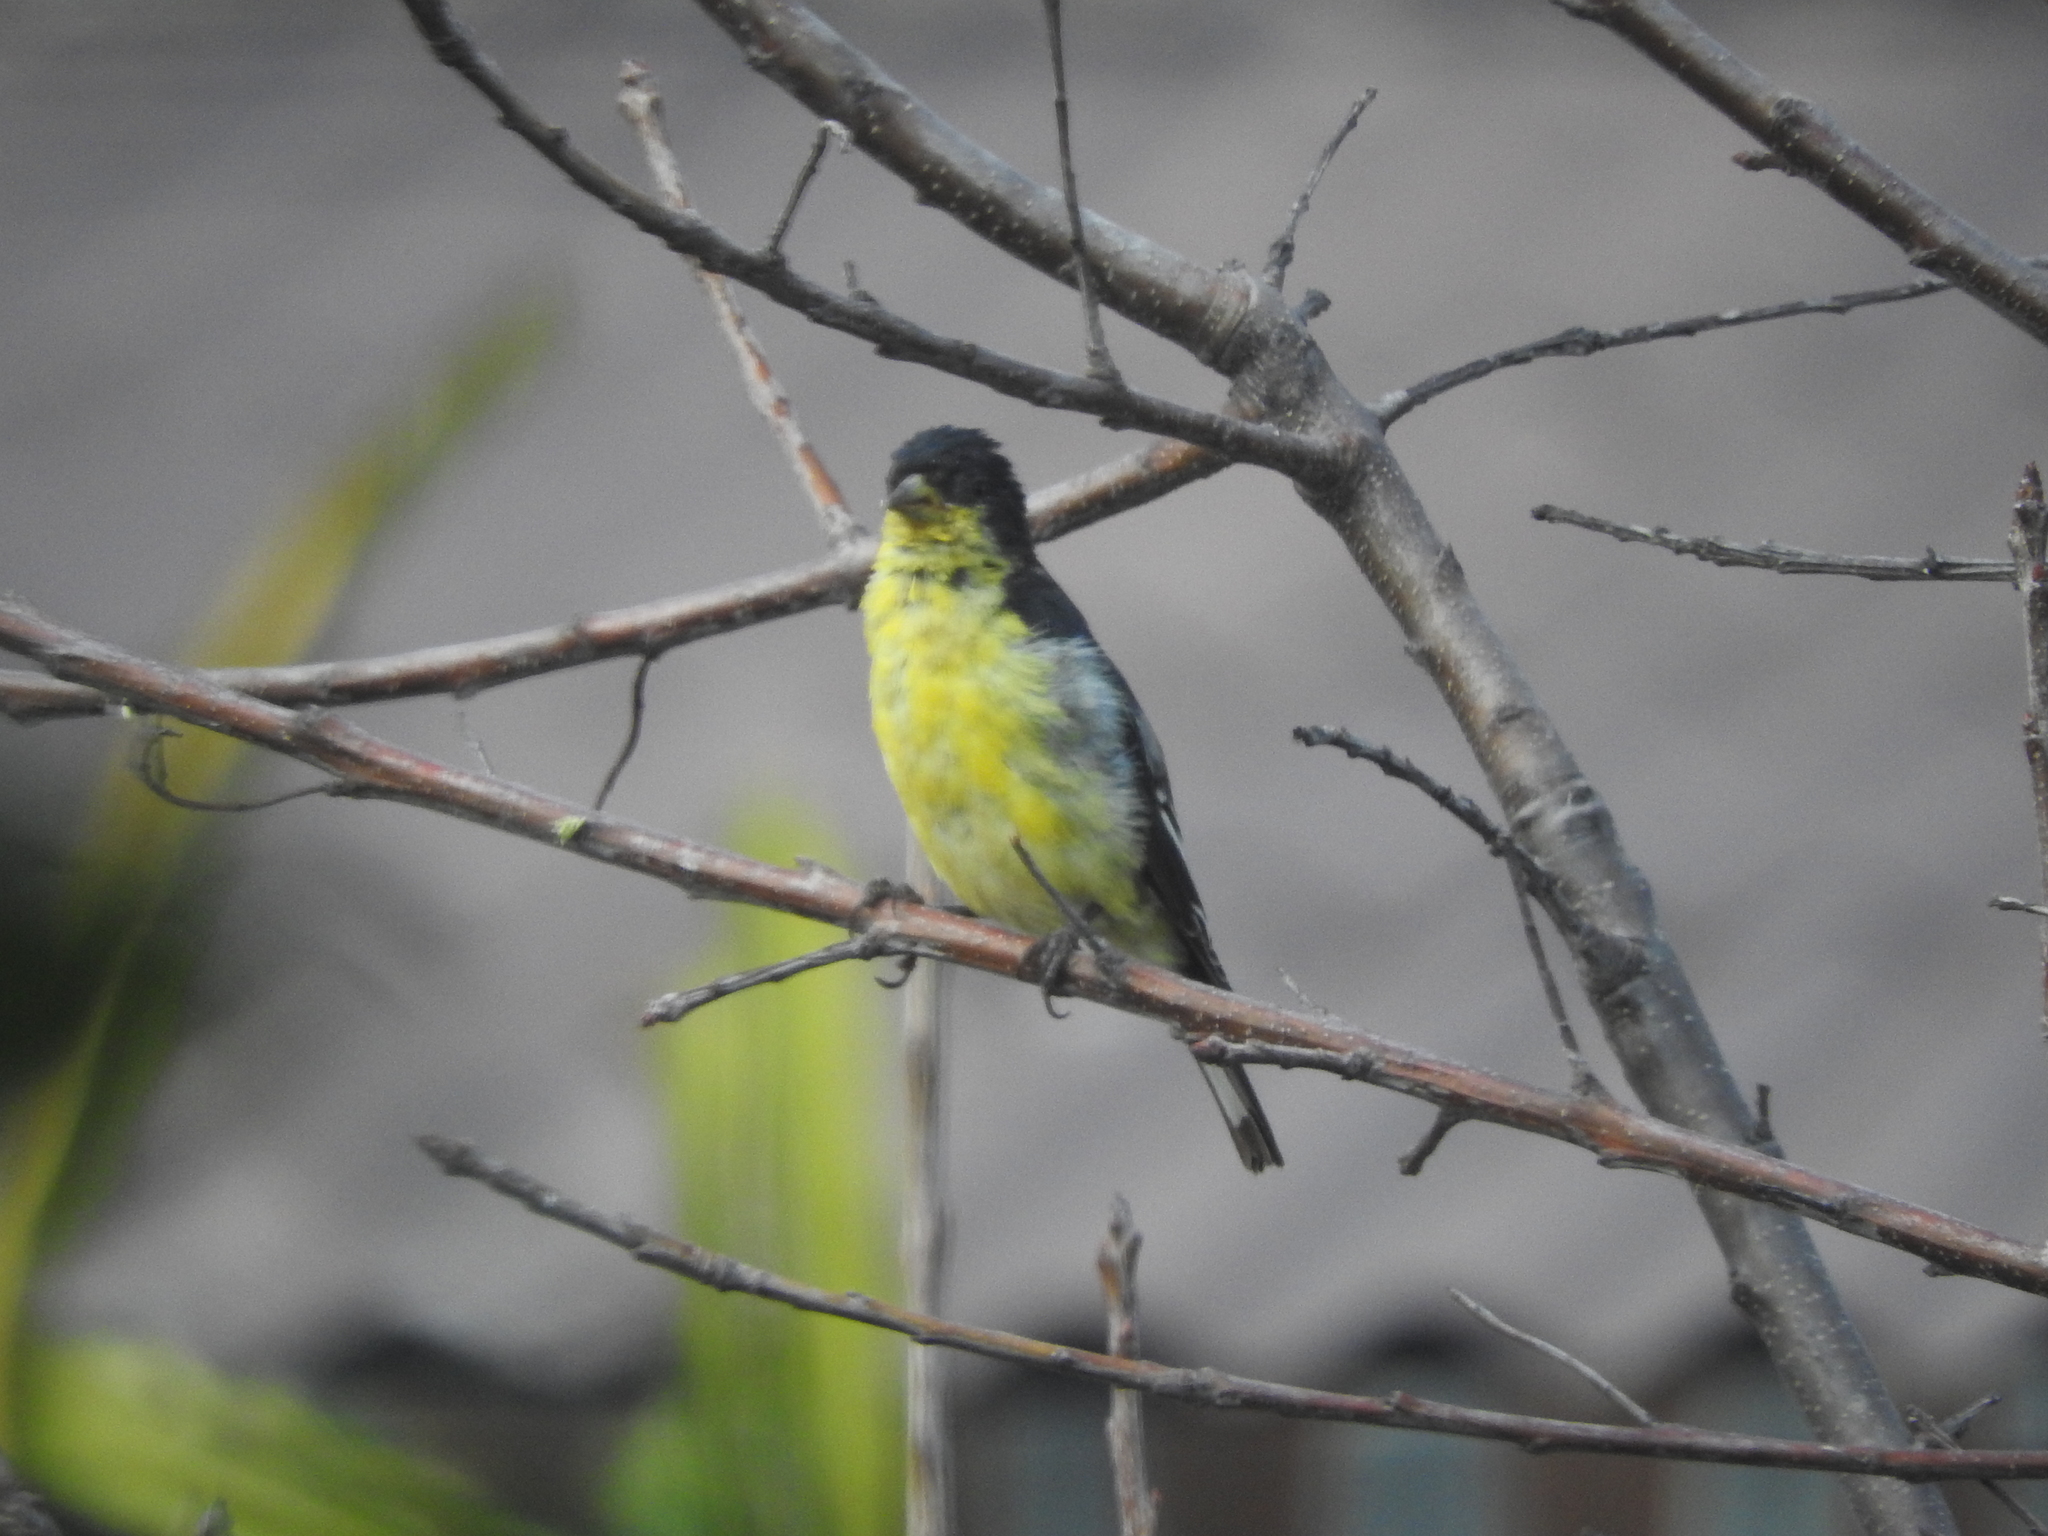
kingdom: Animalia
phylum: Chordata
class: Aves
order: Passeriformes
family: Fringillidae
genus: Spinus
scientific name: Spinus psaltria
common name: Lesser goldfinch
